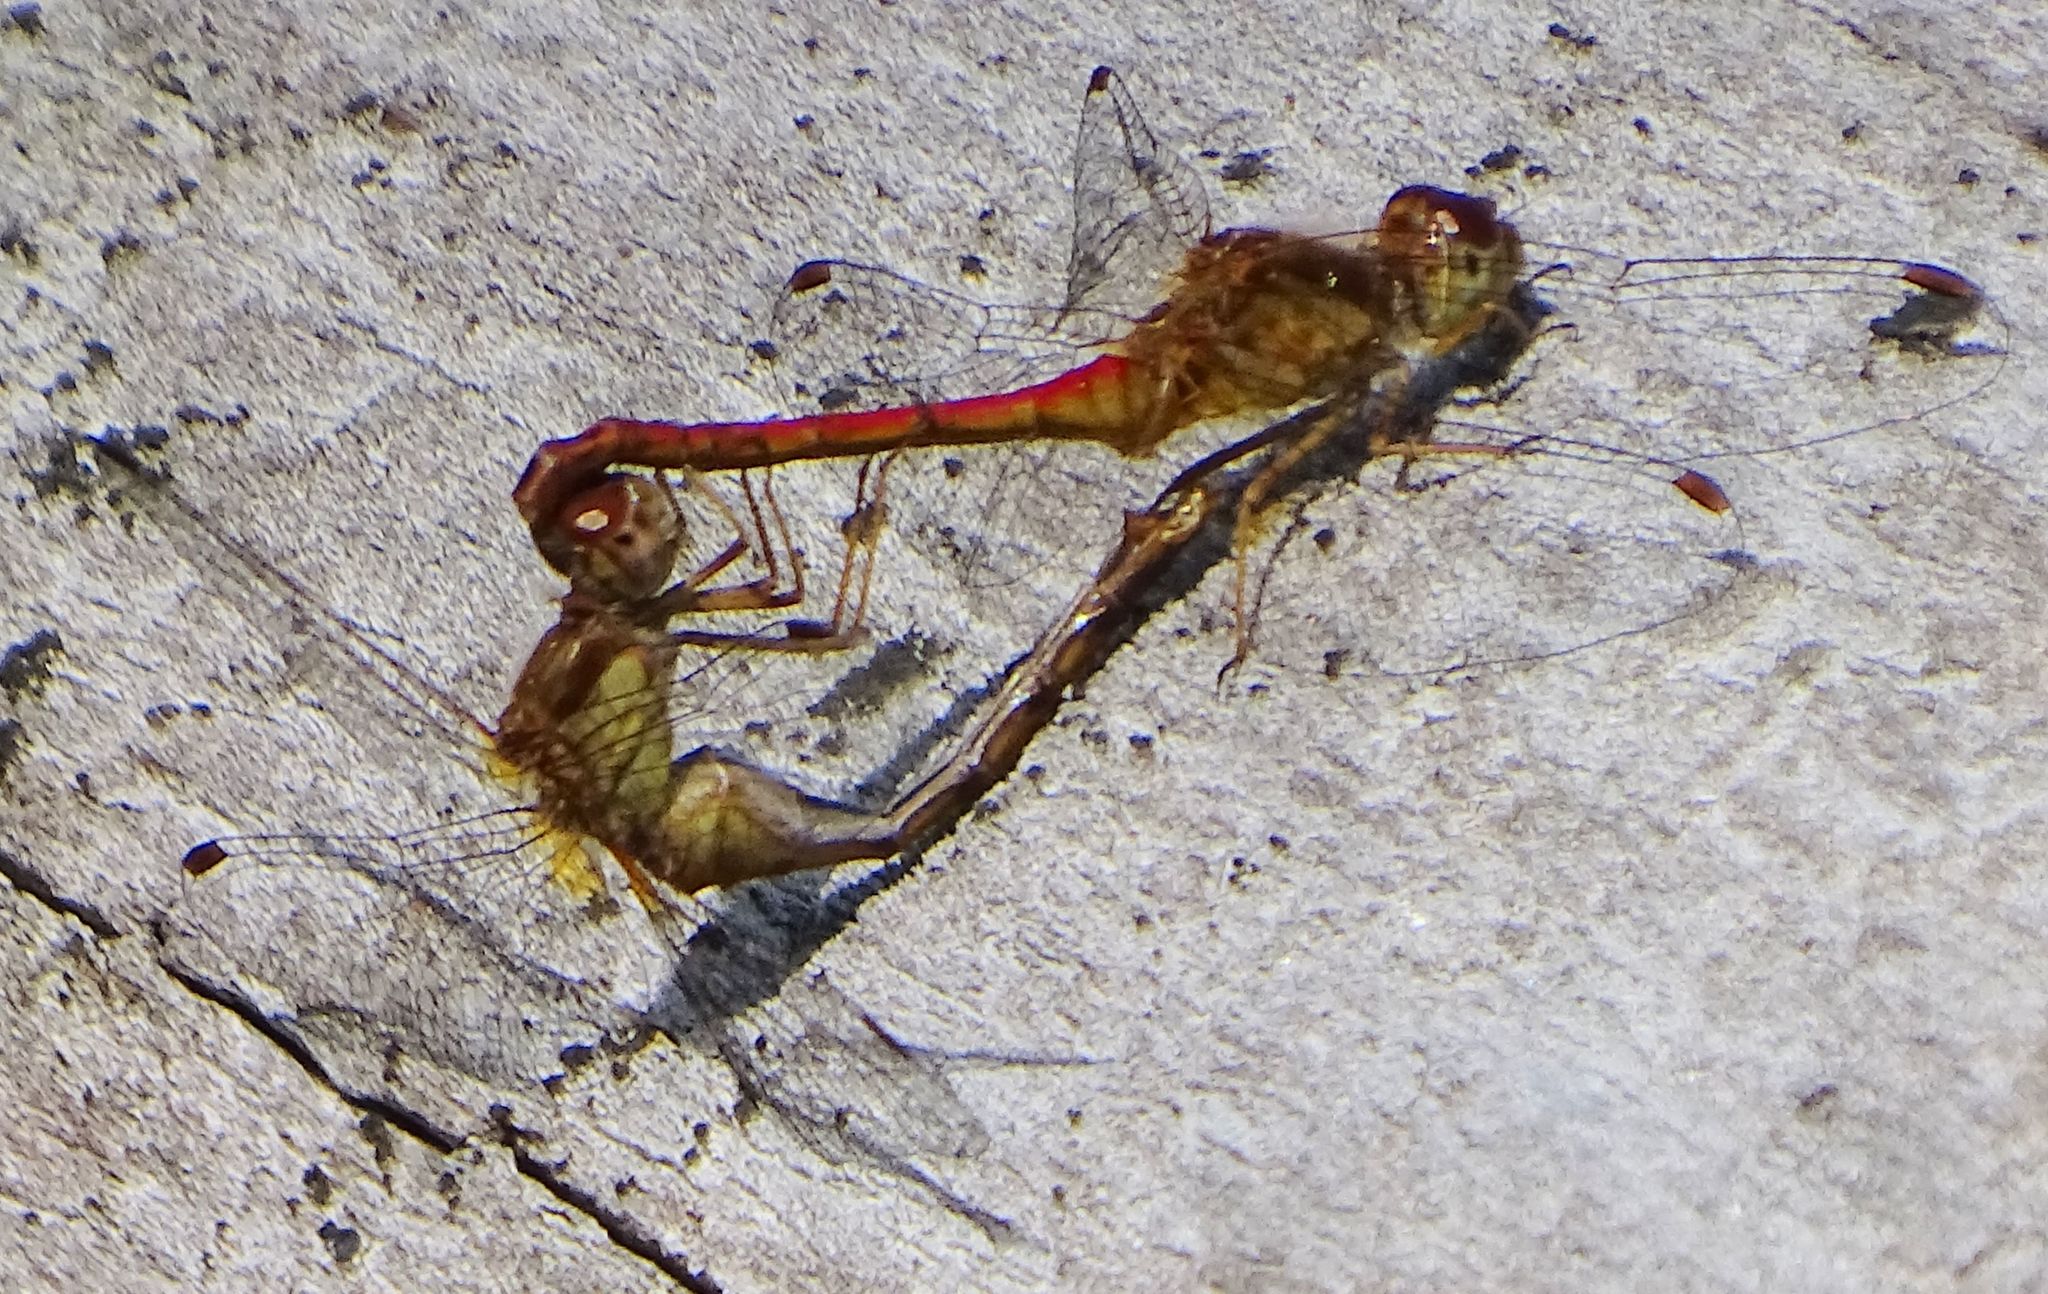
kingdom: Animalia
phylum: Arthropoda
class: Insecta
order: Odonata
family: Libellulidae
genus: Sympetrum
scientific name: Sympetrum vicinum
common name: Autumn meadowhawk
